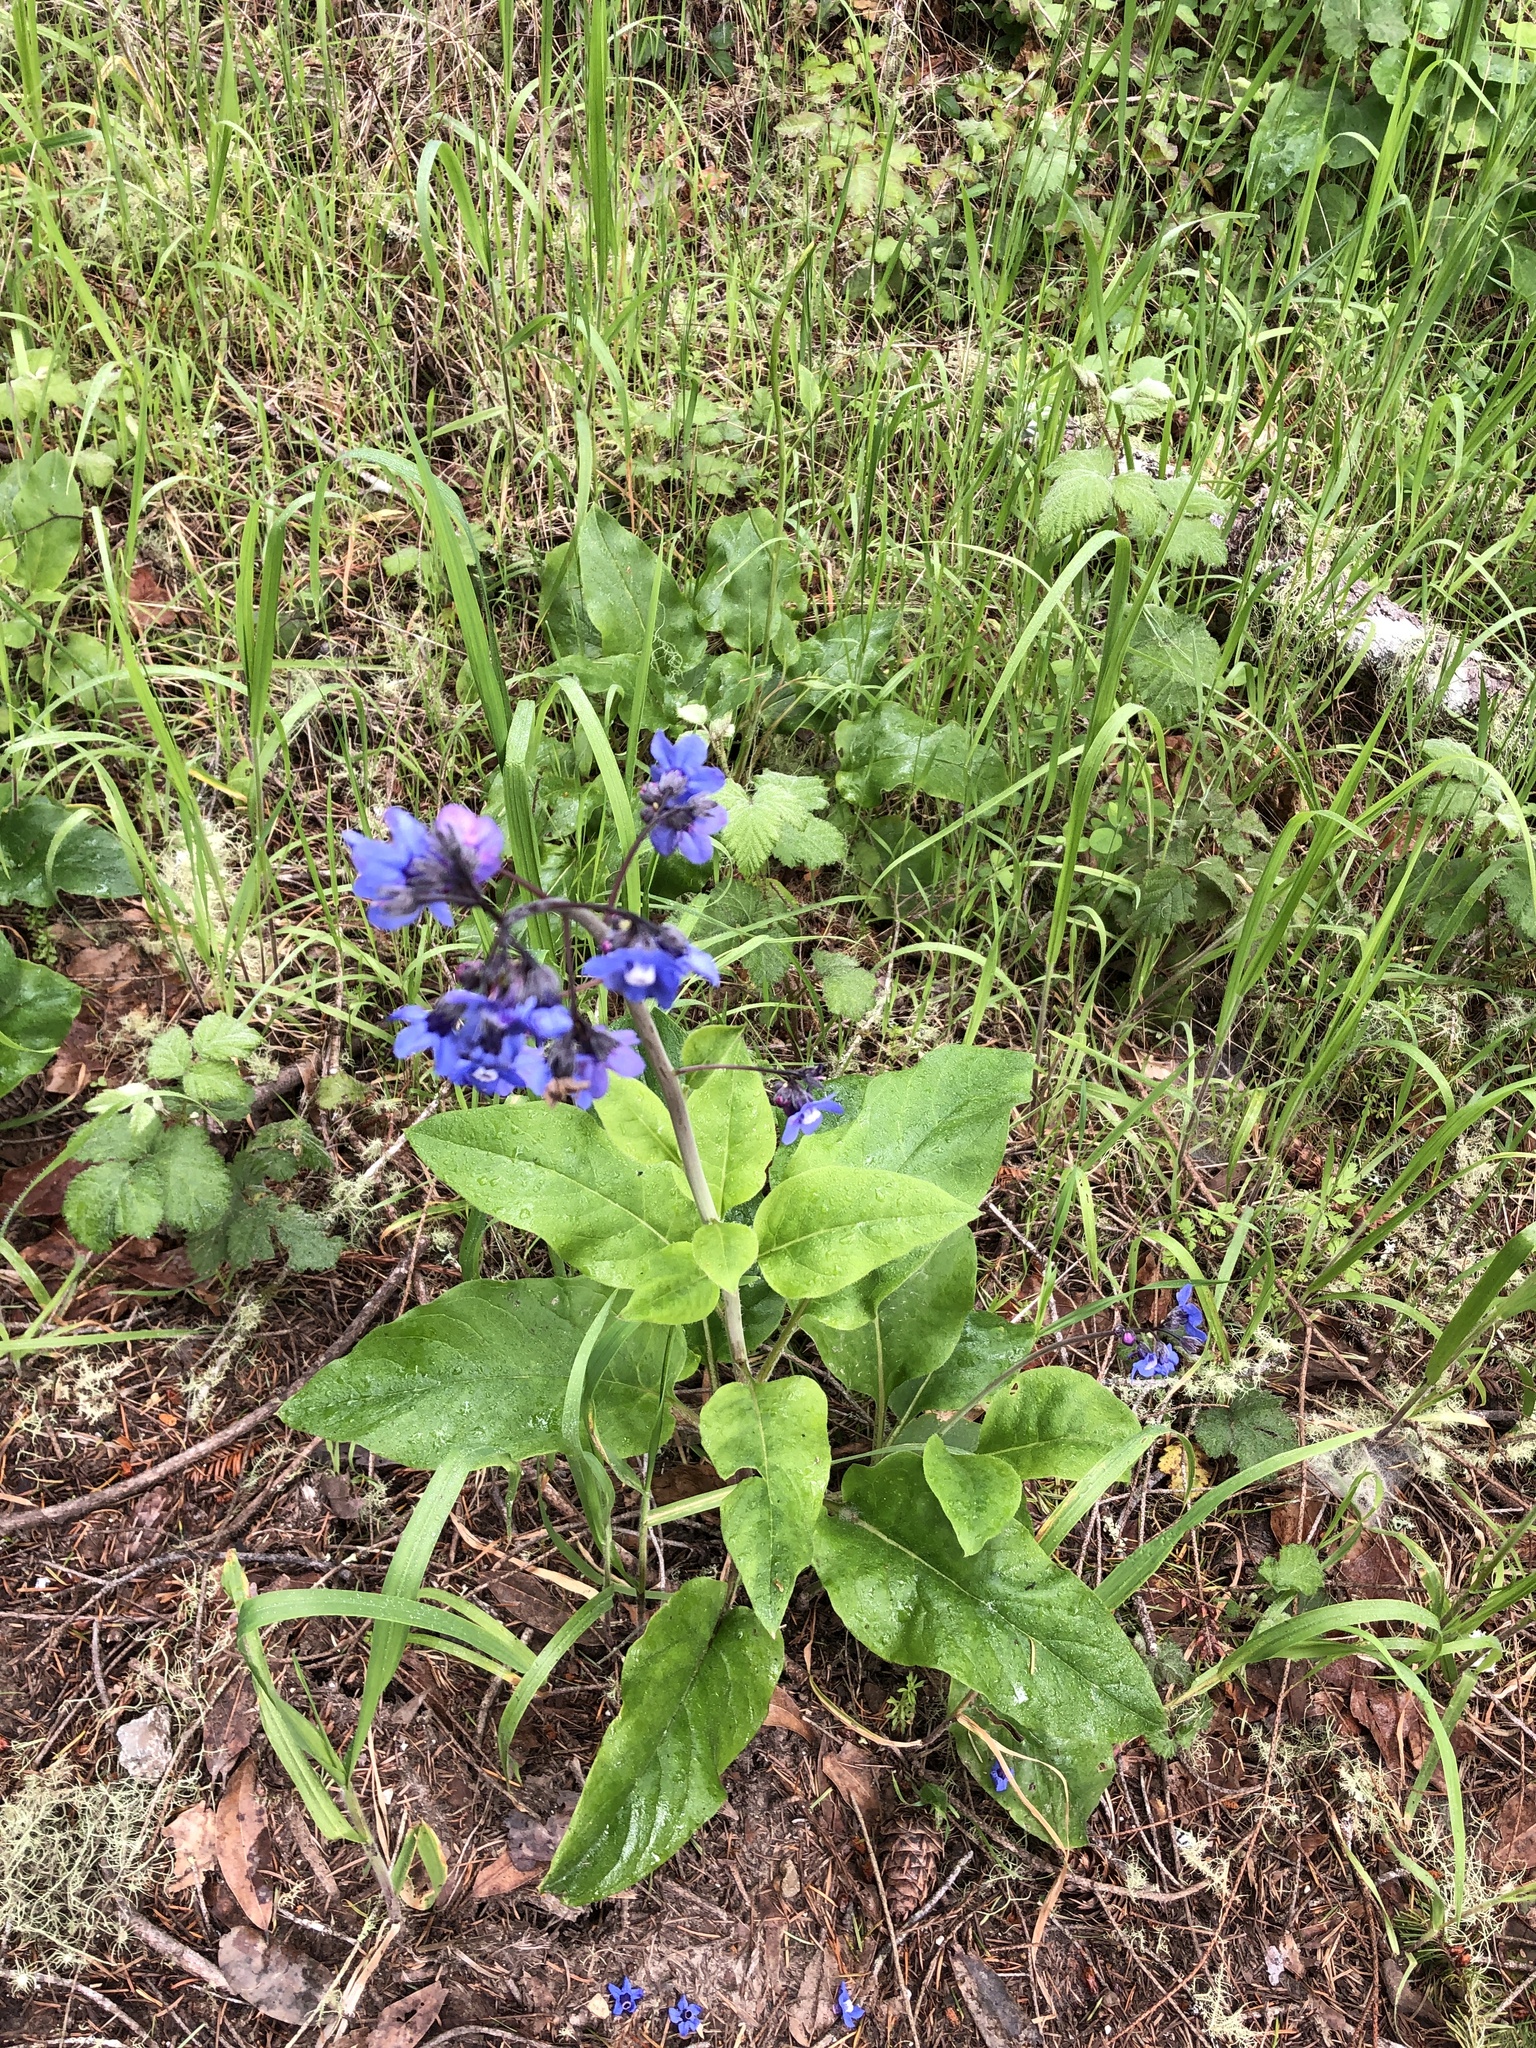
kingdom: Plantae
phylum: Tracheophyta
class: Magnoliopsida
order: Boraginales
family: Boraginaceae
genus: Adelinia
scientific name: Adelinia grande
